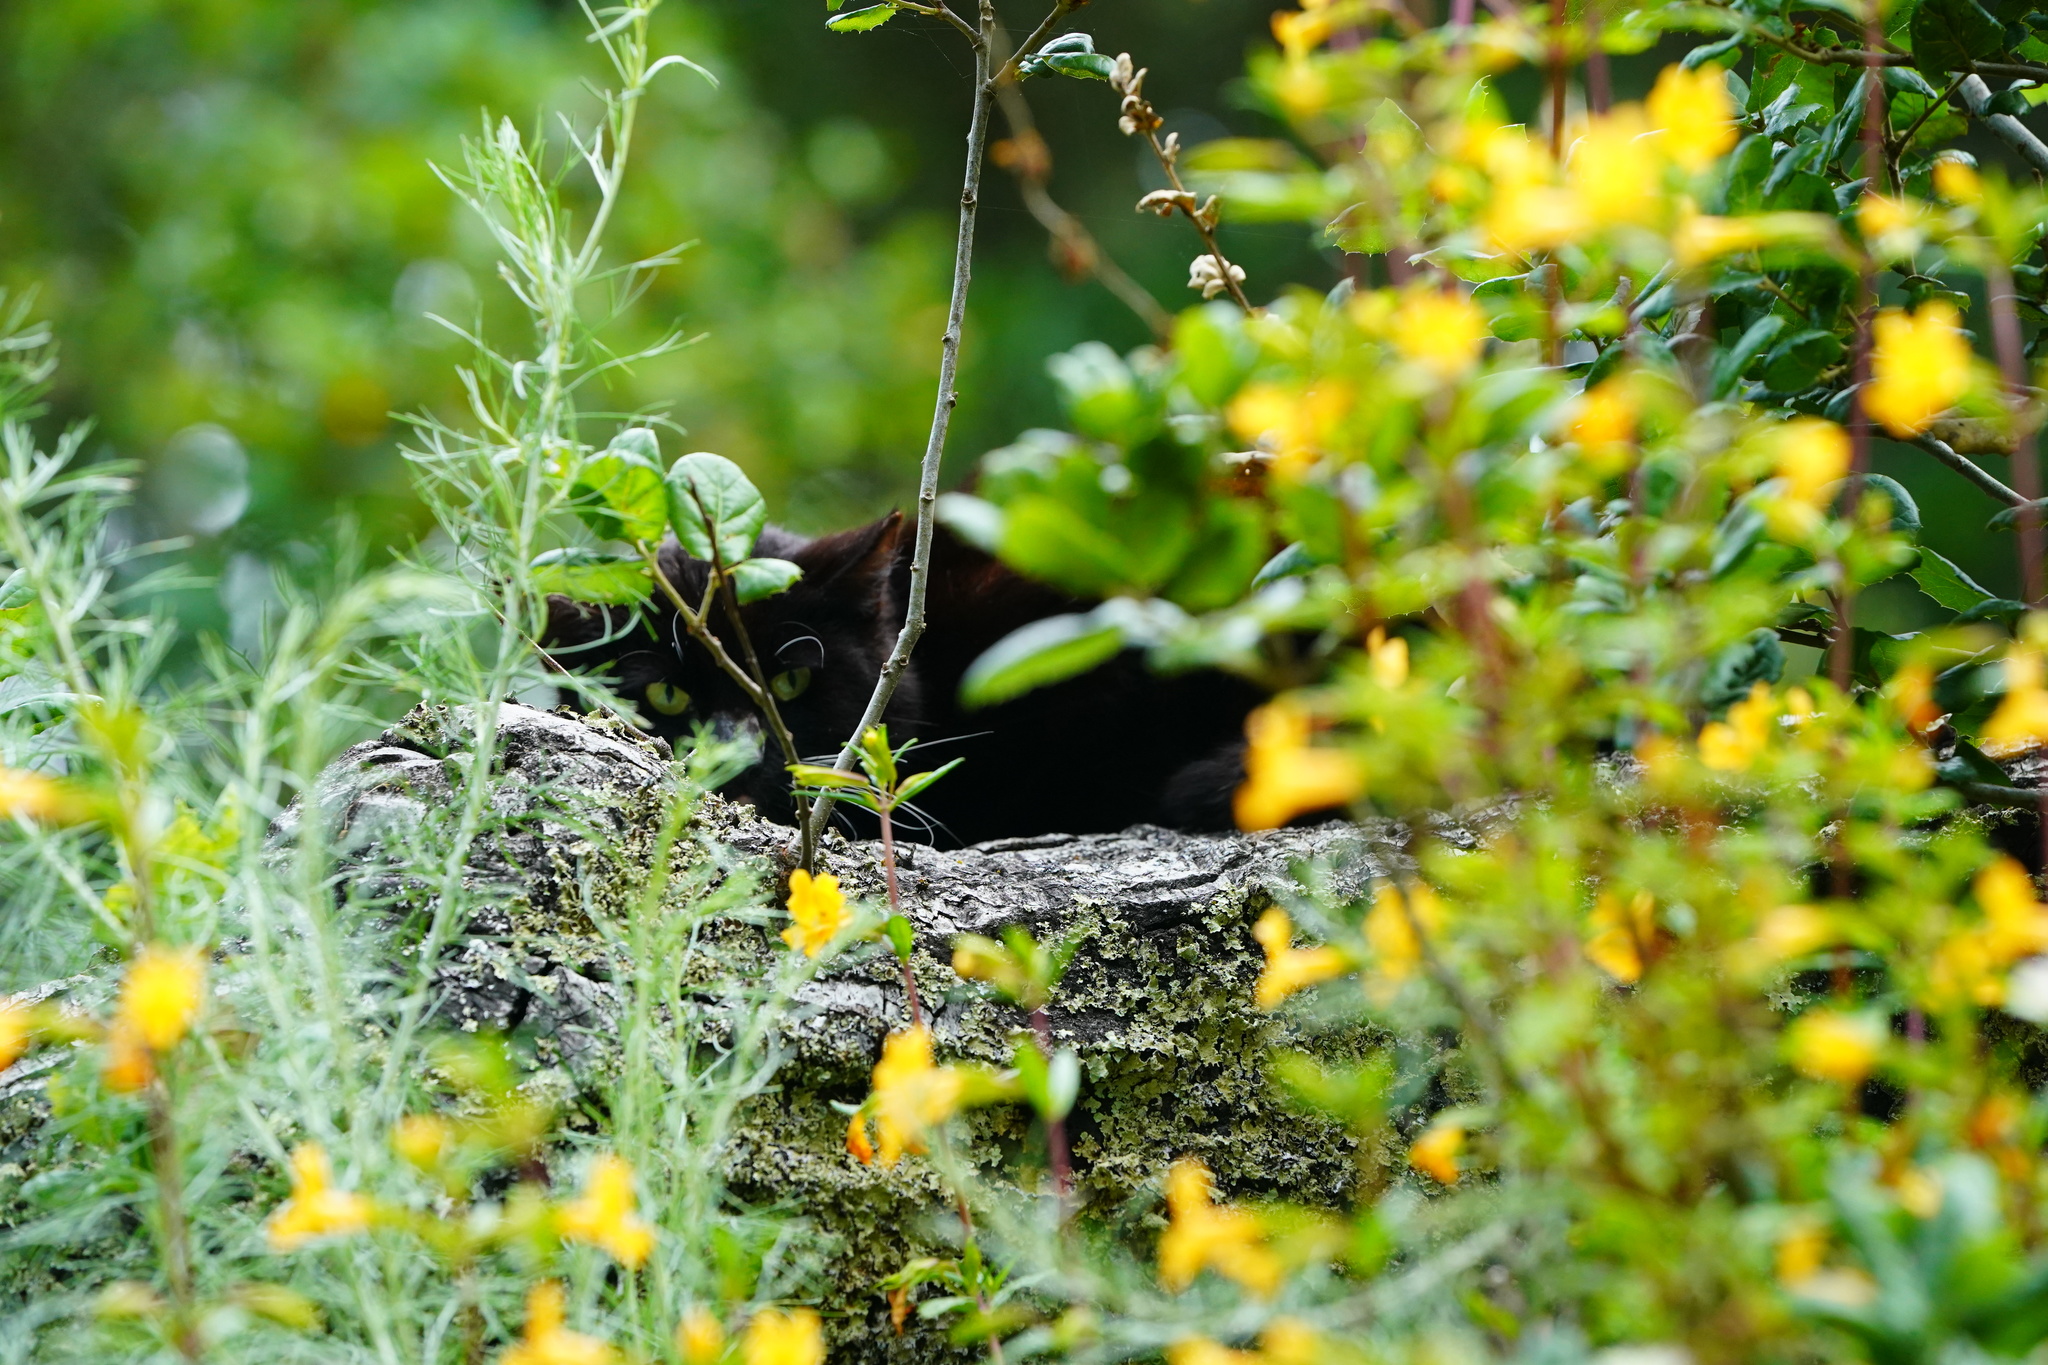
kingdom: Animalia
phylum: Chordata
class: Mammalia
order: Carnivora
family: Felidae
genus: Felis
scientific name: Felis catus
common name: Domestic cat
